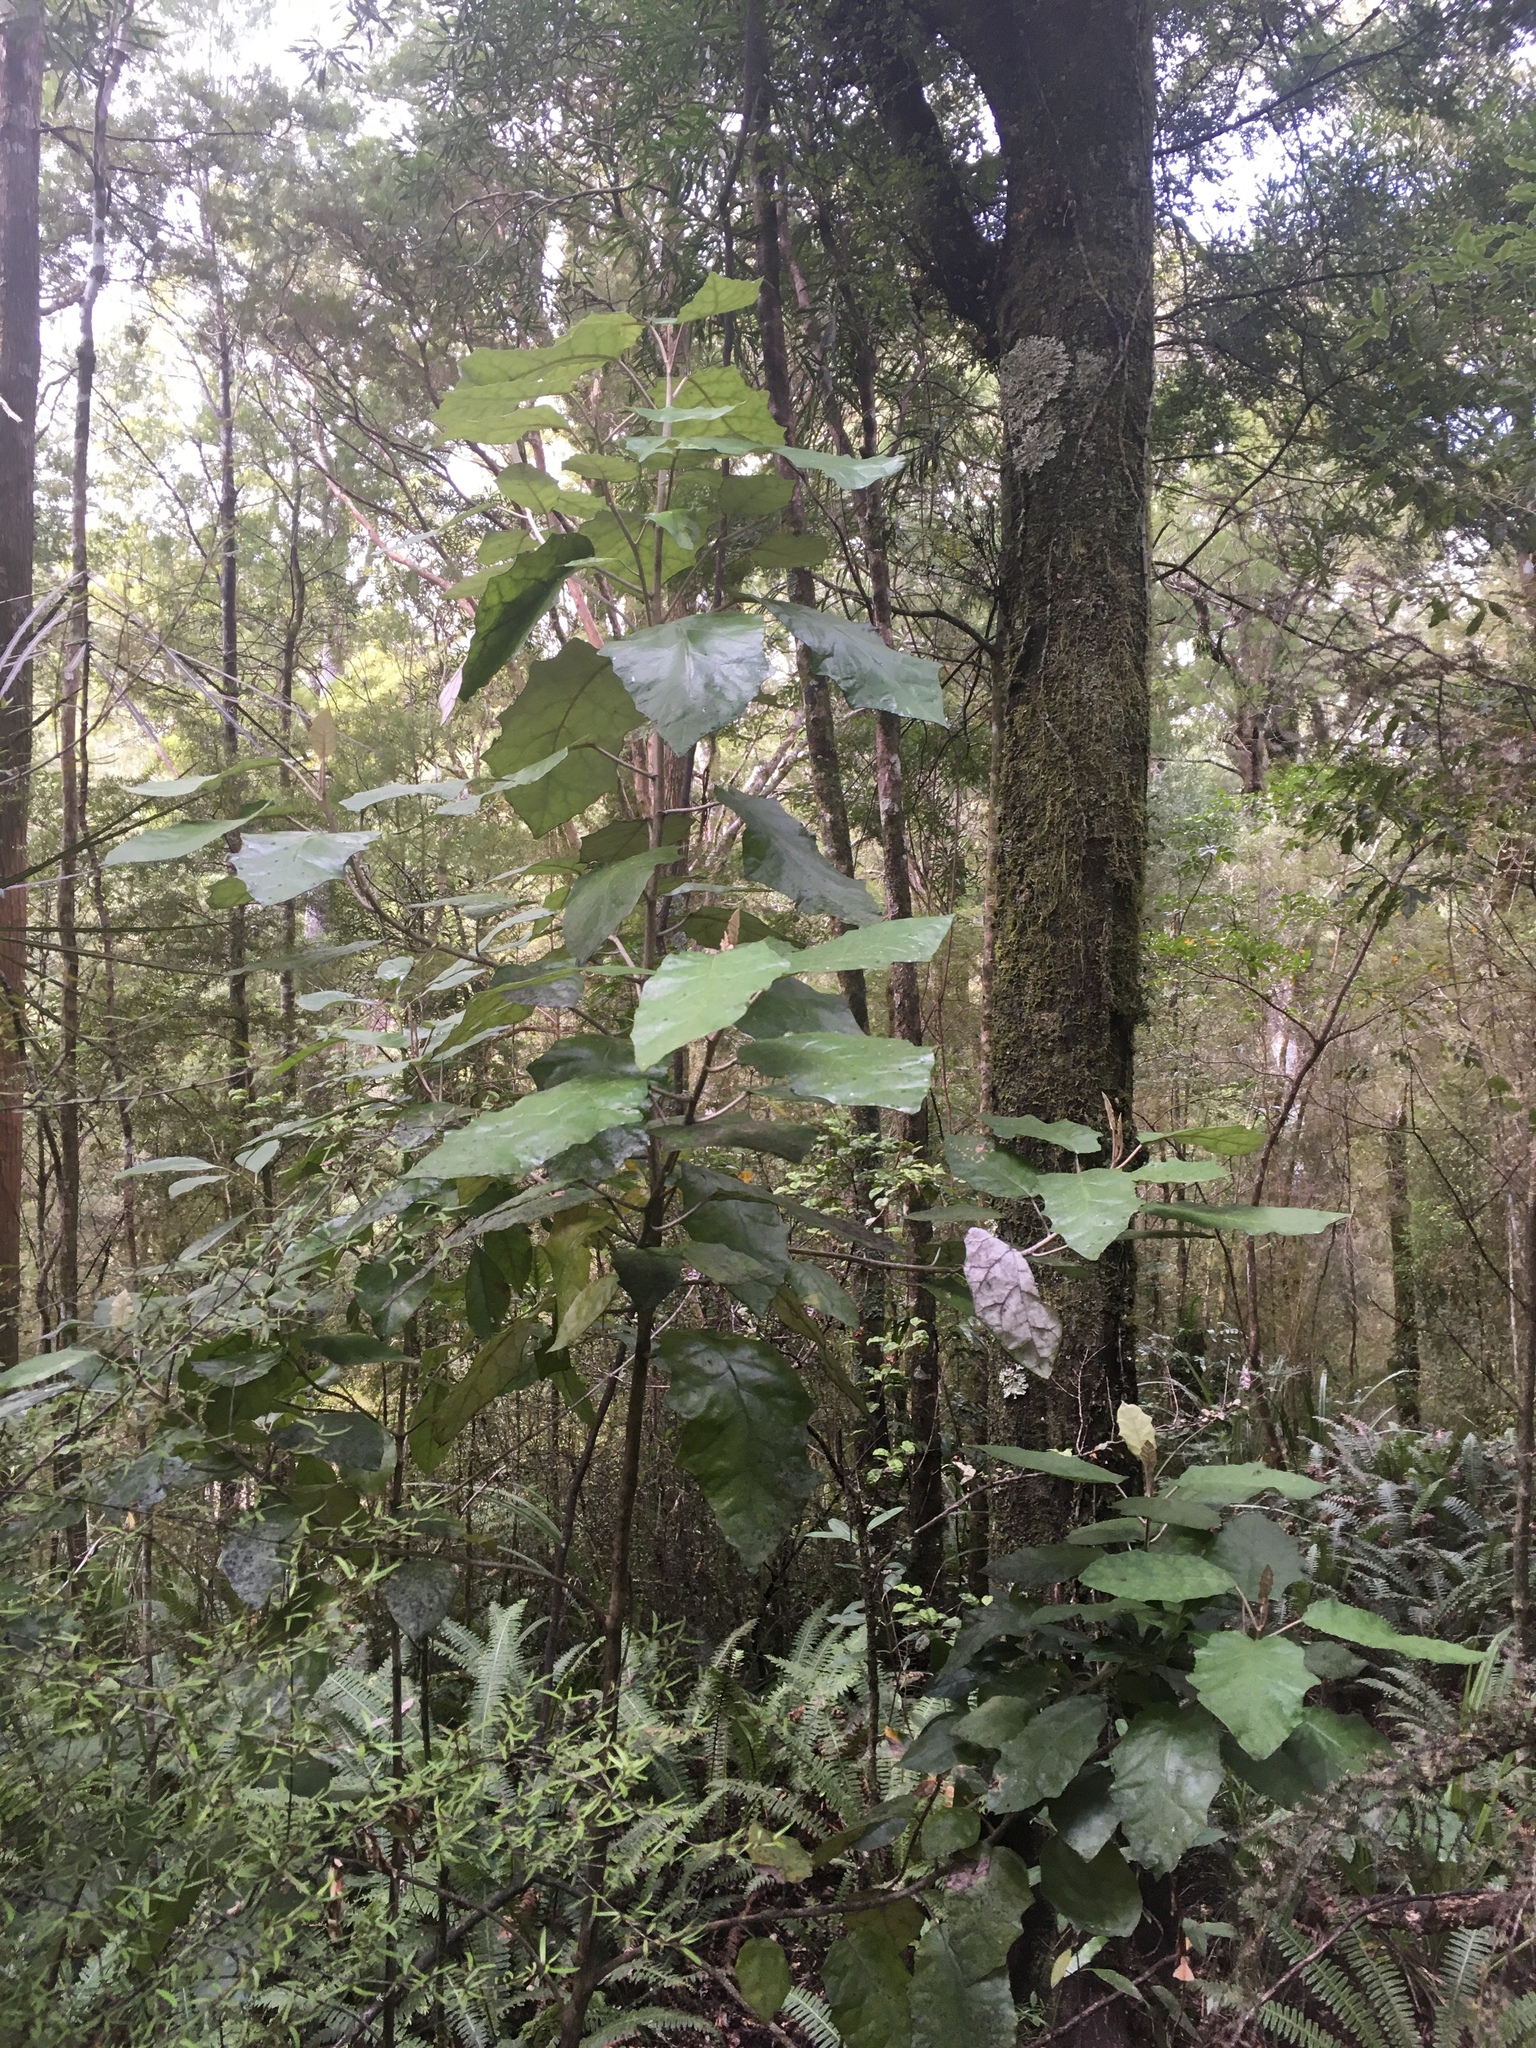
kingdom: Plantae
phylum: Tracheophyta
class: Magnoliopsida
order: Asterales
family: Asteraceae
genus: Brachyglottis
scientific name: Brachyglottis repanda
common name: Hedge ragwort
